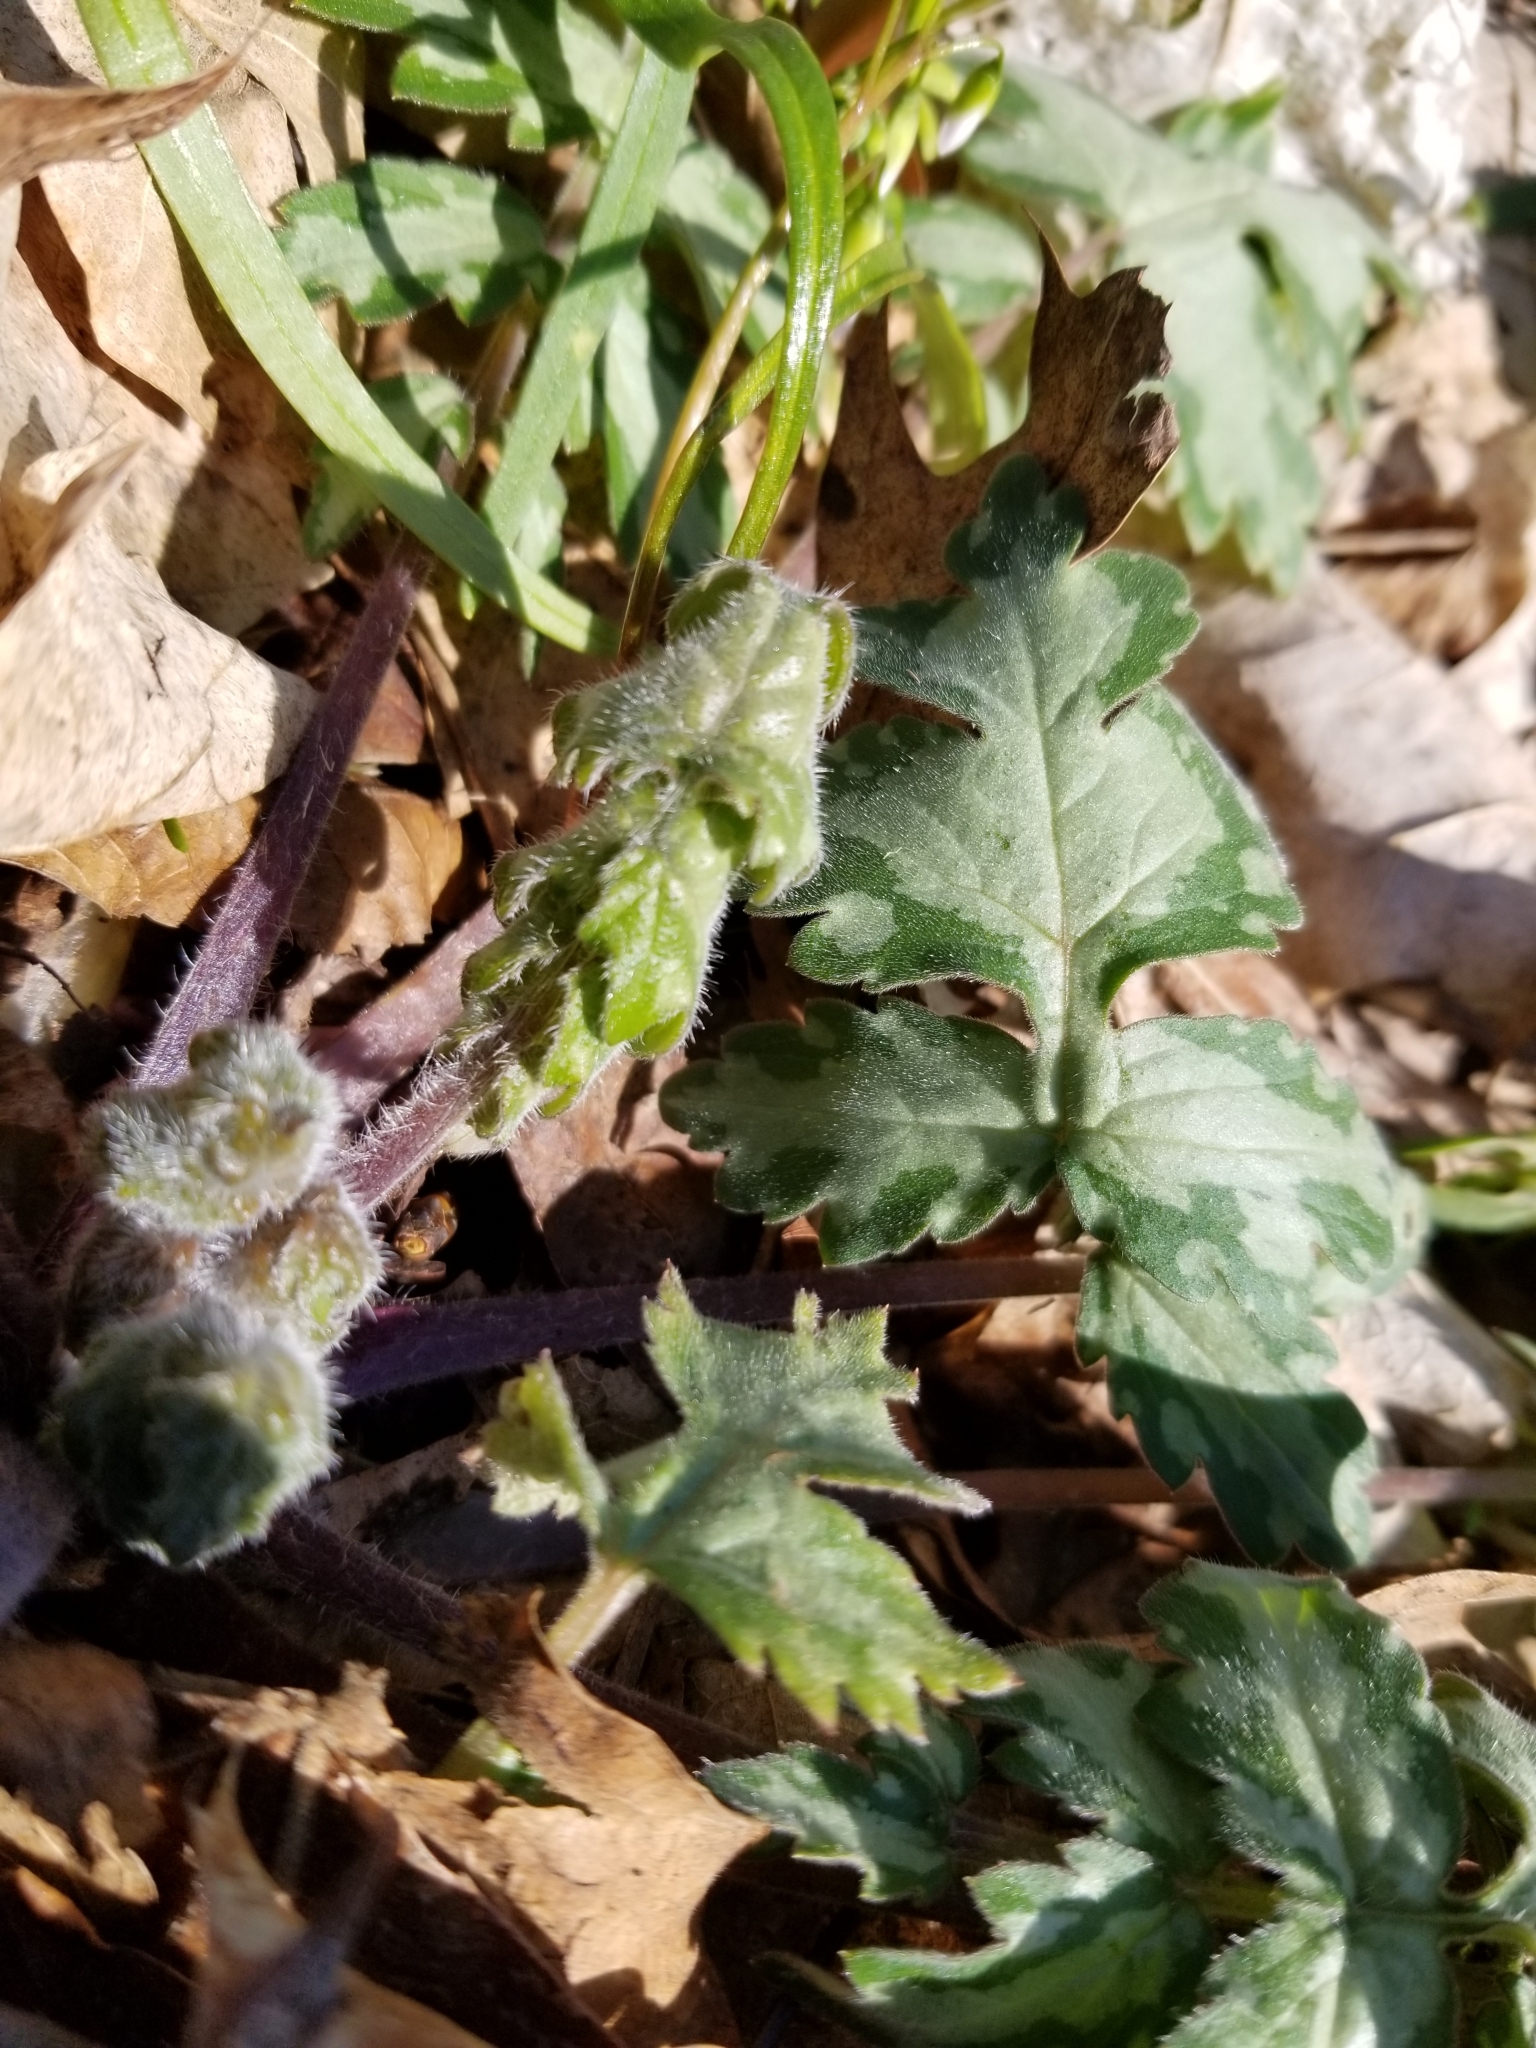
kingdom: Plantae
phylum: Tracheophyta
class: Magnoliopsida
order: Boraginales
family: Hydrophyllaceae
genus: Hydrophyllum
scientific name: Hydrophyllum appendiculatum
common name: Appendaged waterleaf
